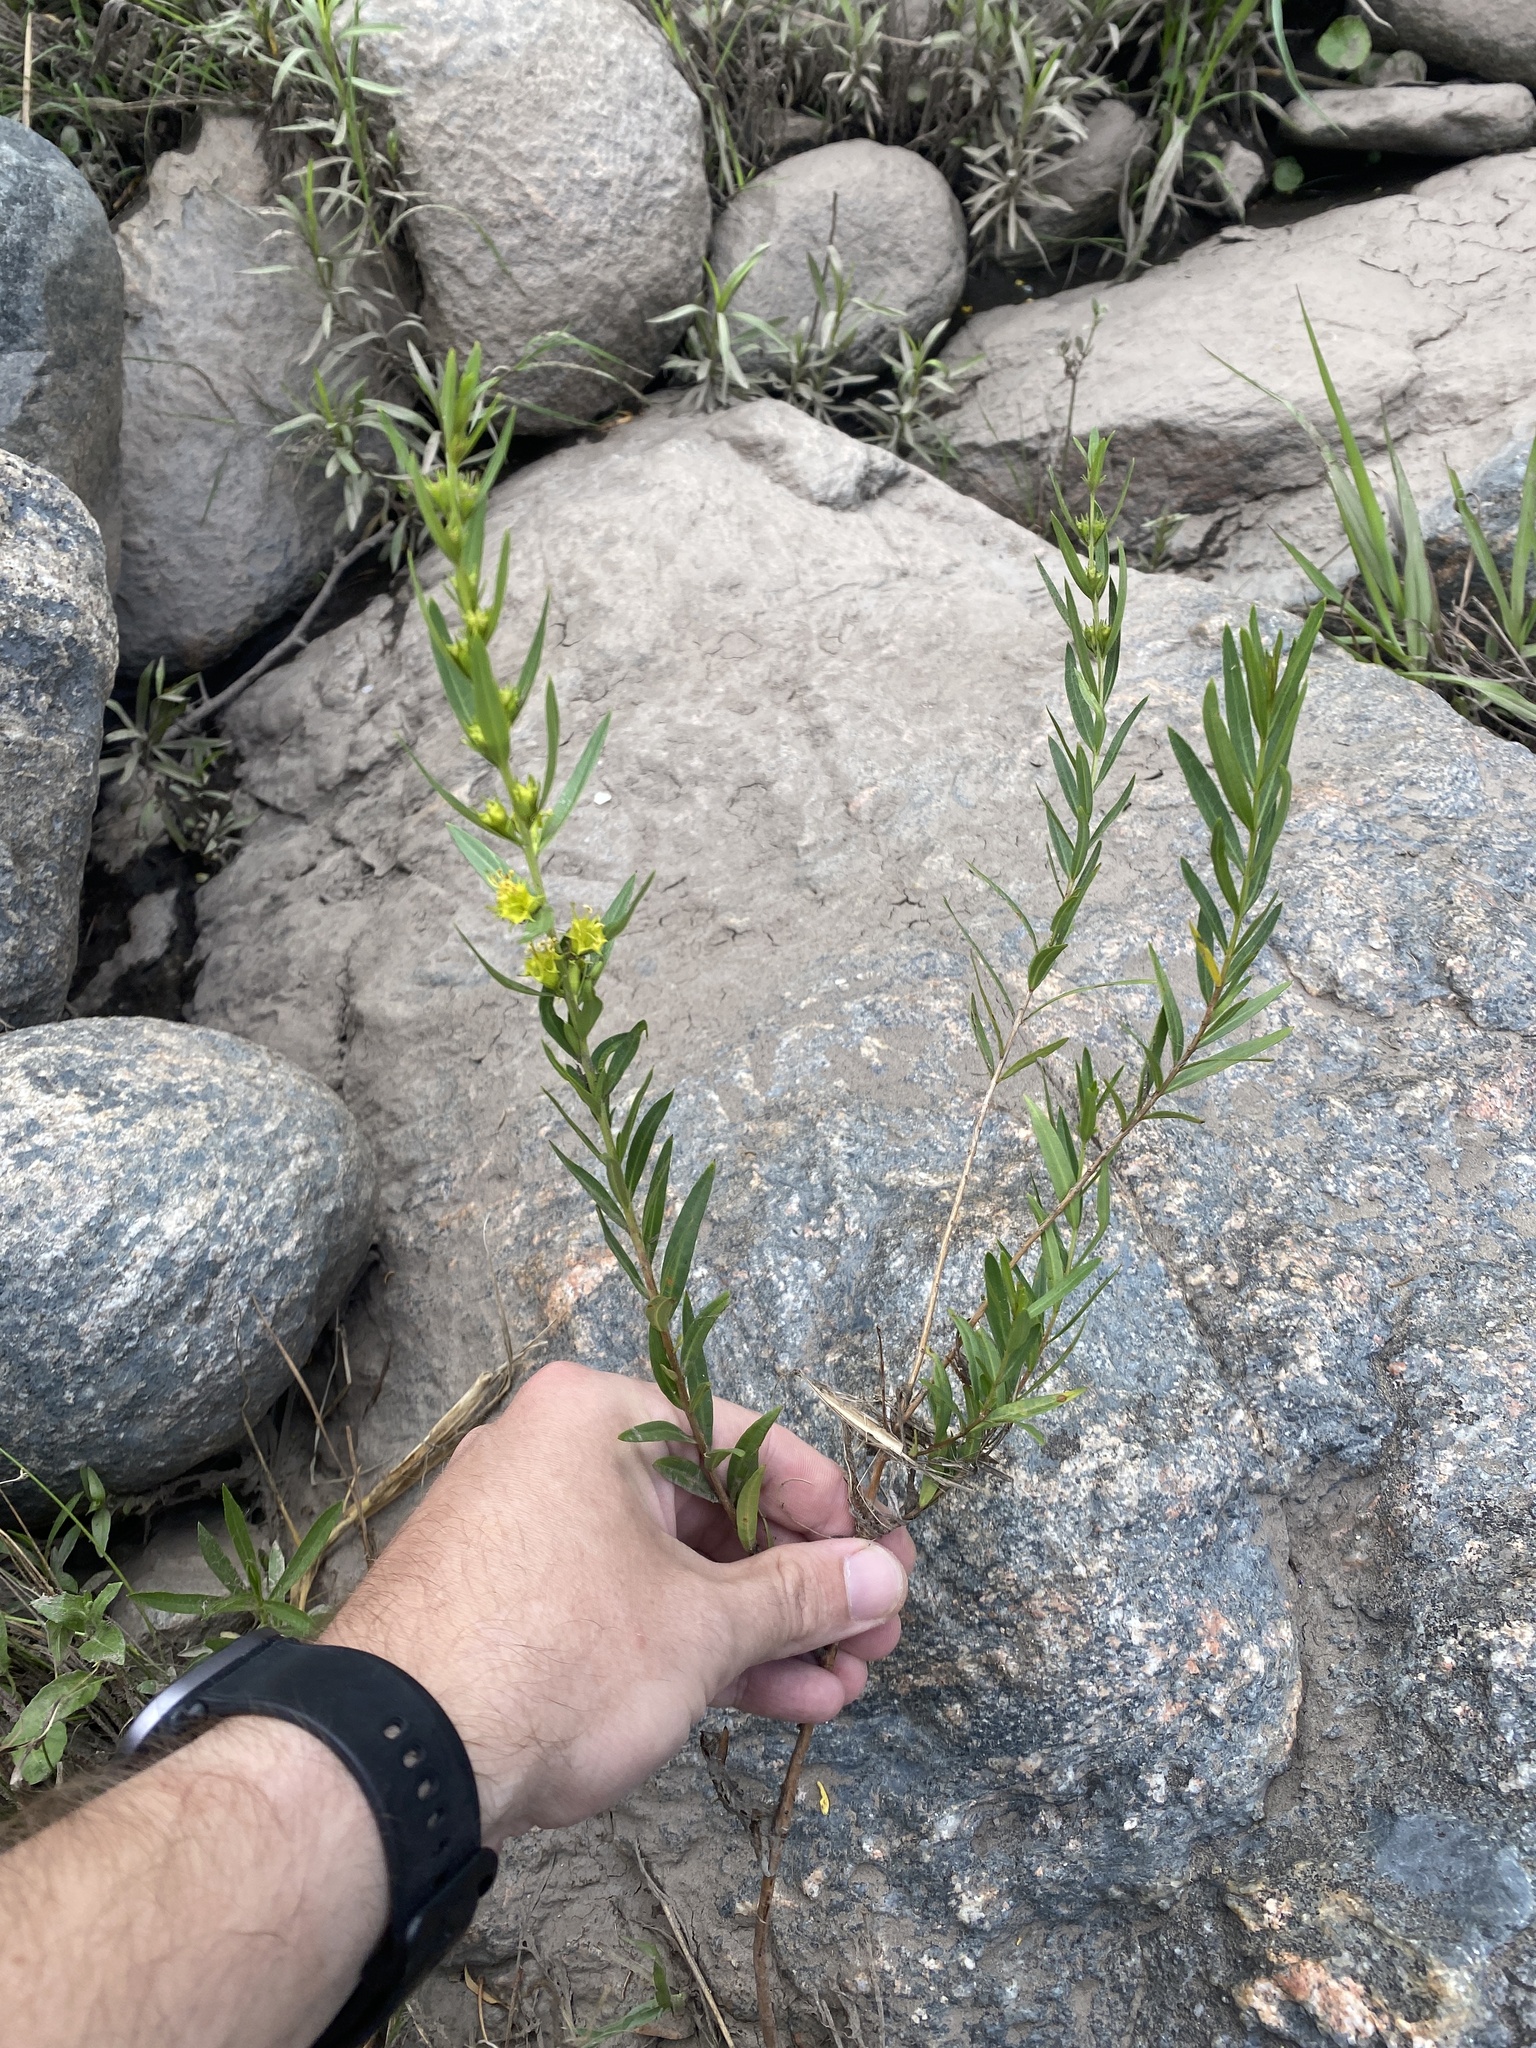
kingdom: Plantae
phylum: Tracheophyta
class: Magnoliopsida
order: Myrtales
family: Lythraceae
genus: Heimia
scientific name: Heimia salicifolia
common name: Willow-leaf heimia
